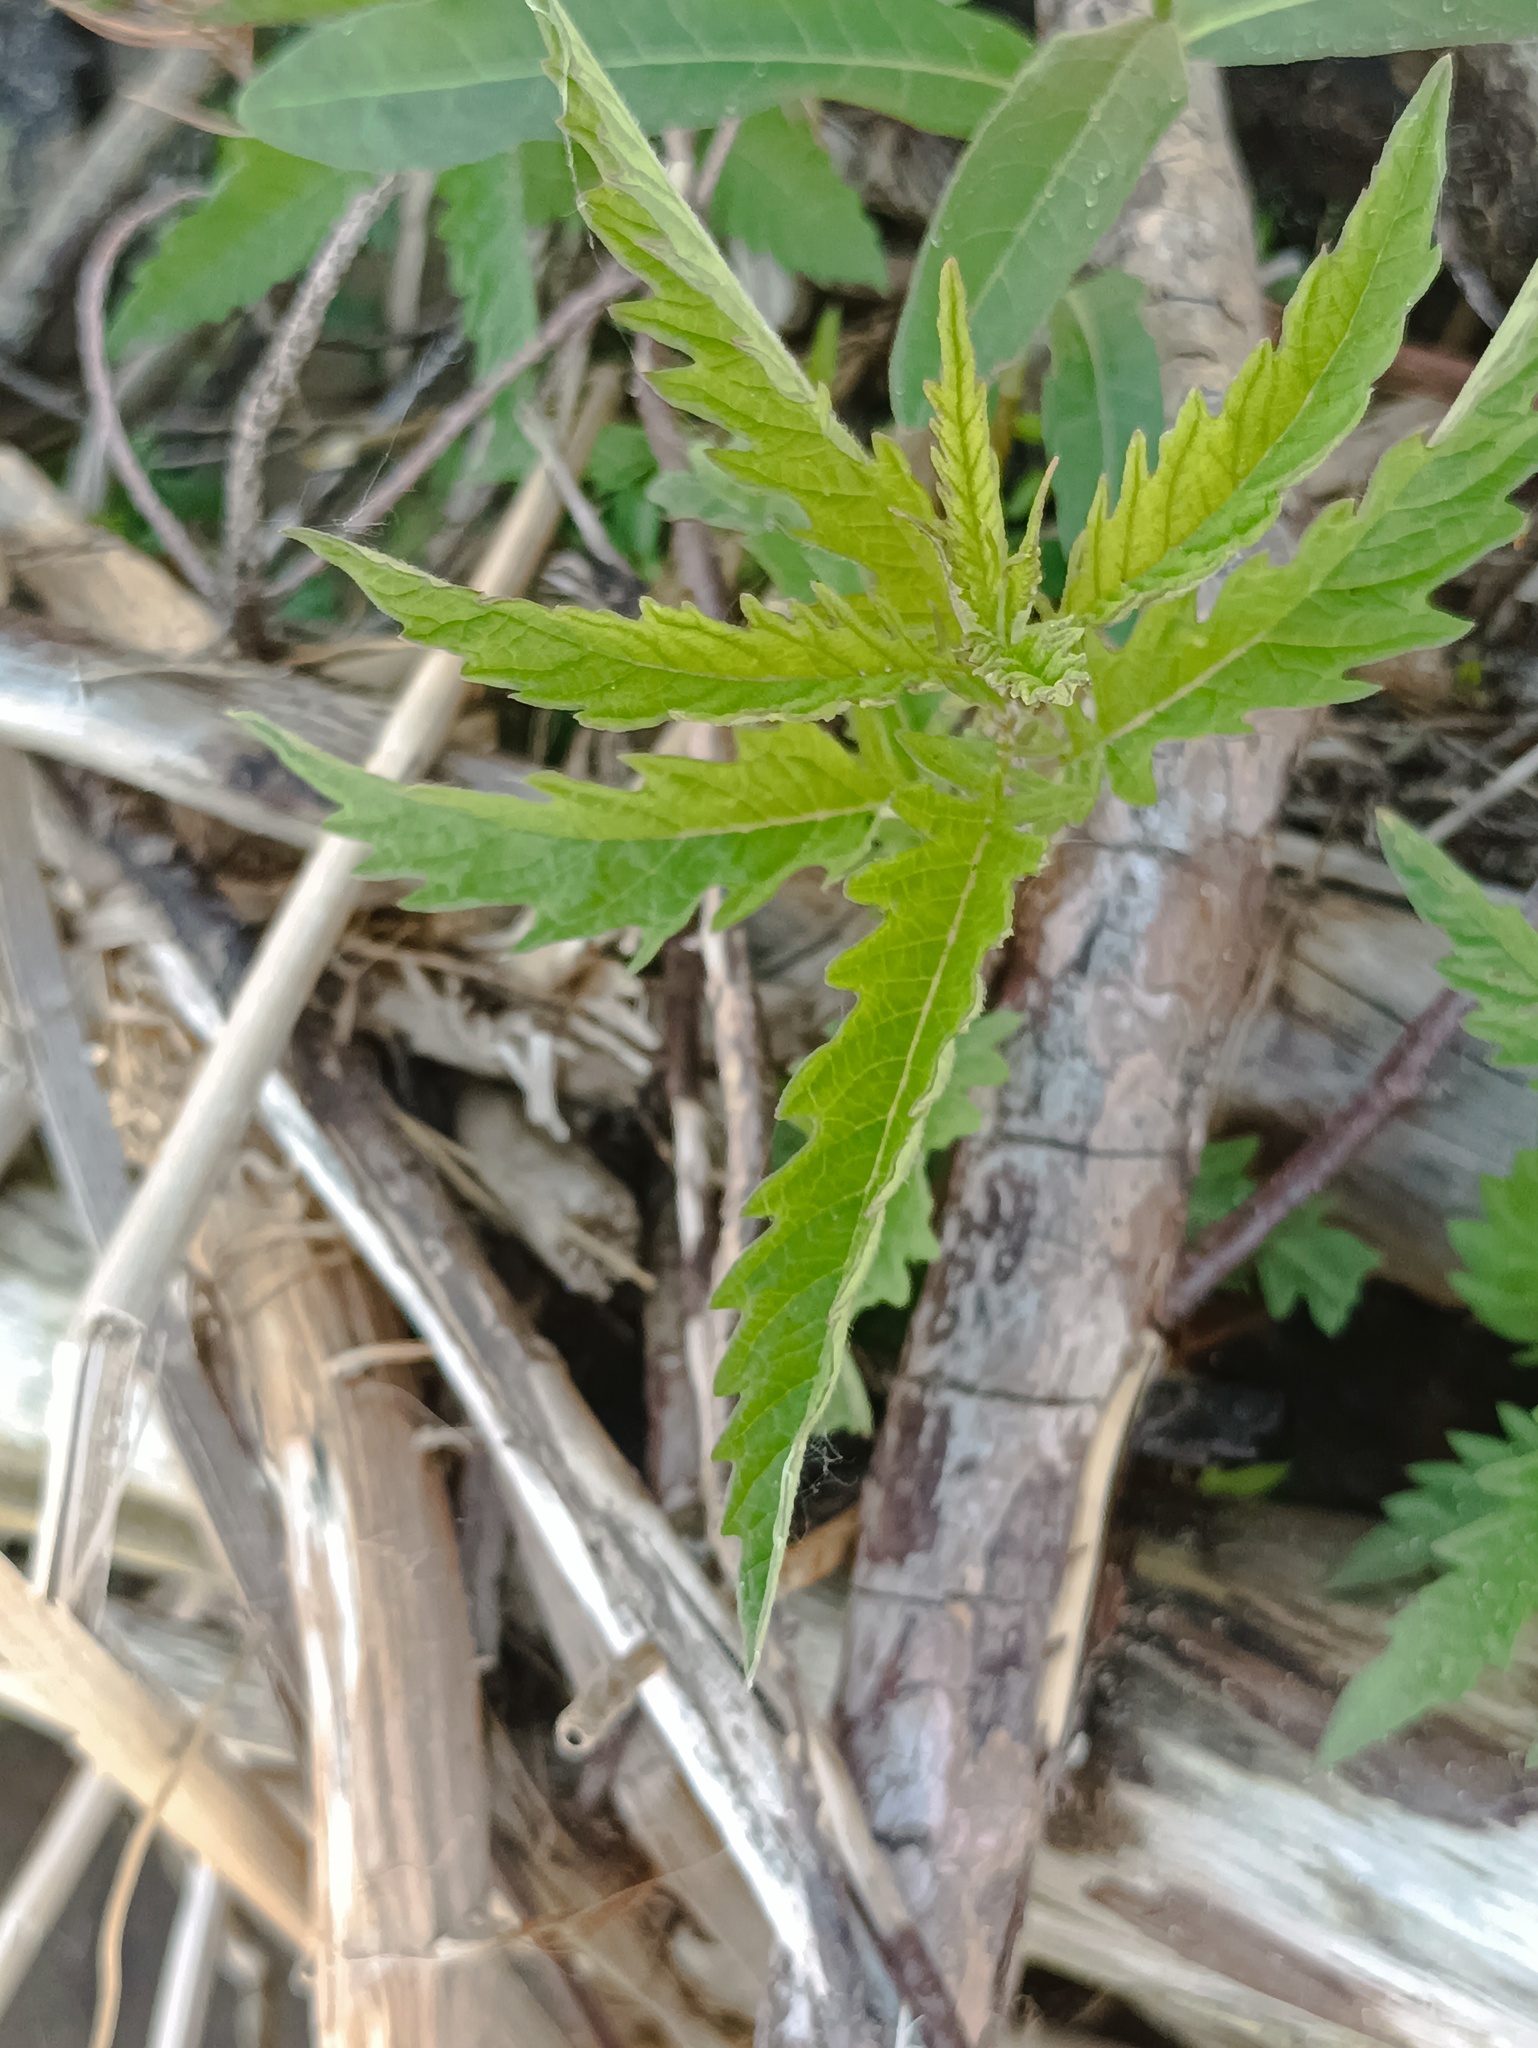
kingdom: Plantae
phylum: Tracheophyta
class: Magnoliopsida
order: Lamiales
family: Lamiaceae
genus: Lycopus
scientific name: Lycopus europaeus
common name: European bugleweed
